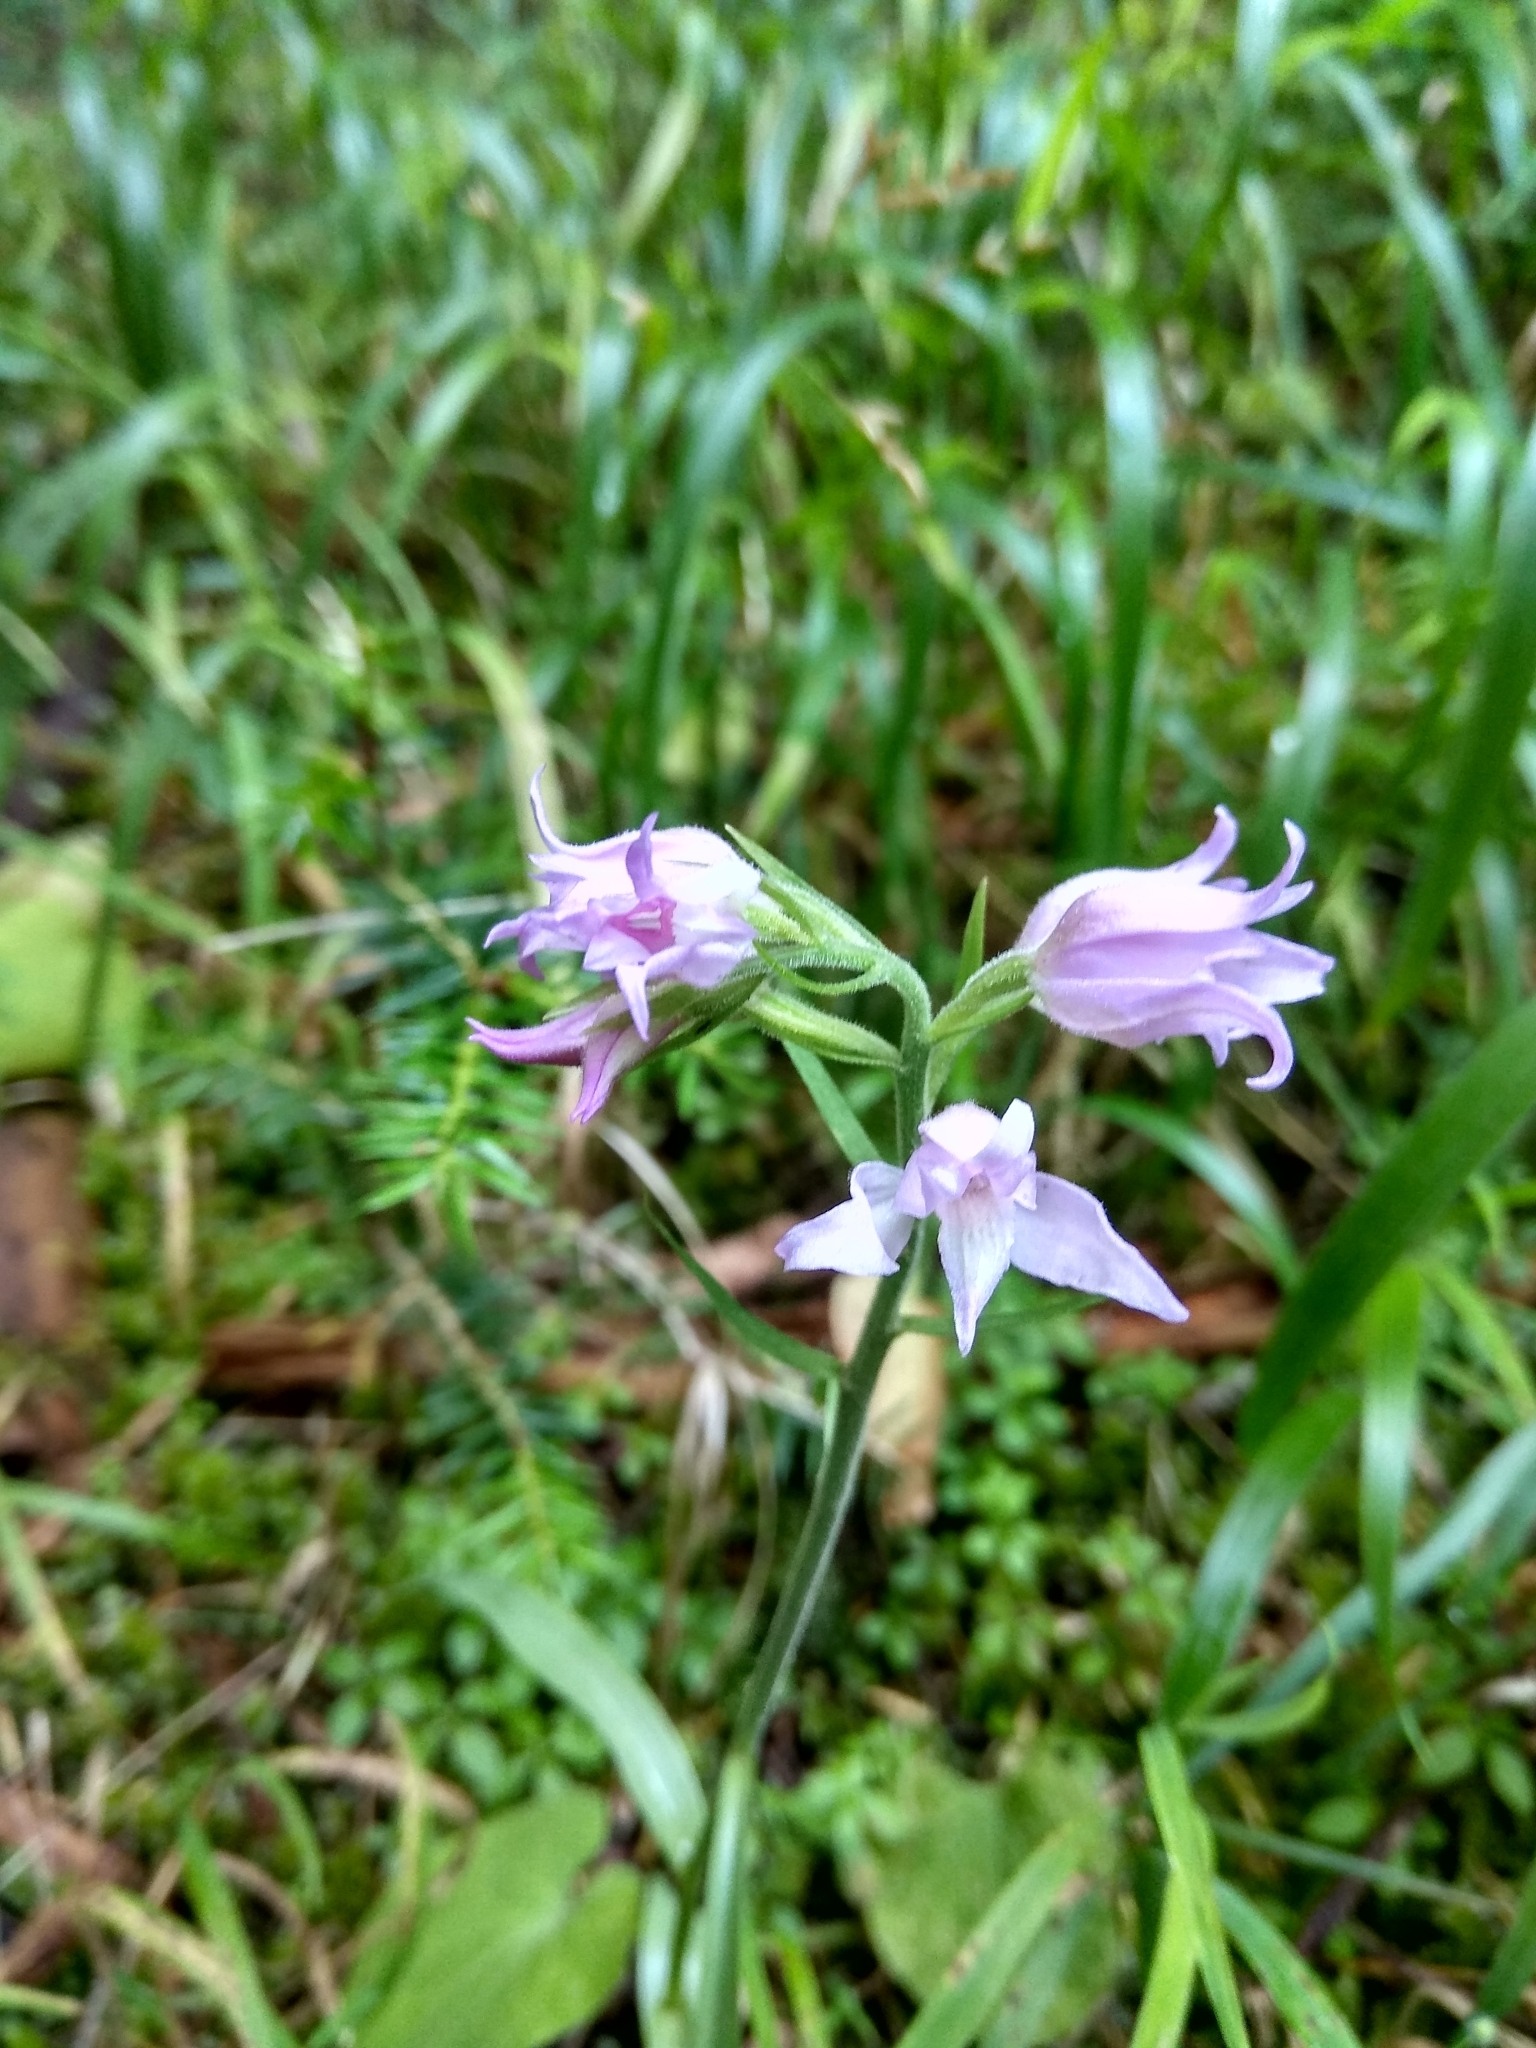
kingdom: Plantae
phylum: Tracheophyta
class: Liliopsida
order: Asparagales
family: Orchidaceae
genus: Cephalanthera
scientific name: Cephalanthera rubra
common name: Red helleborine
